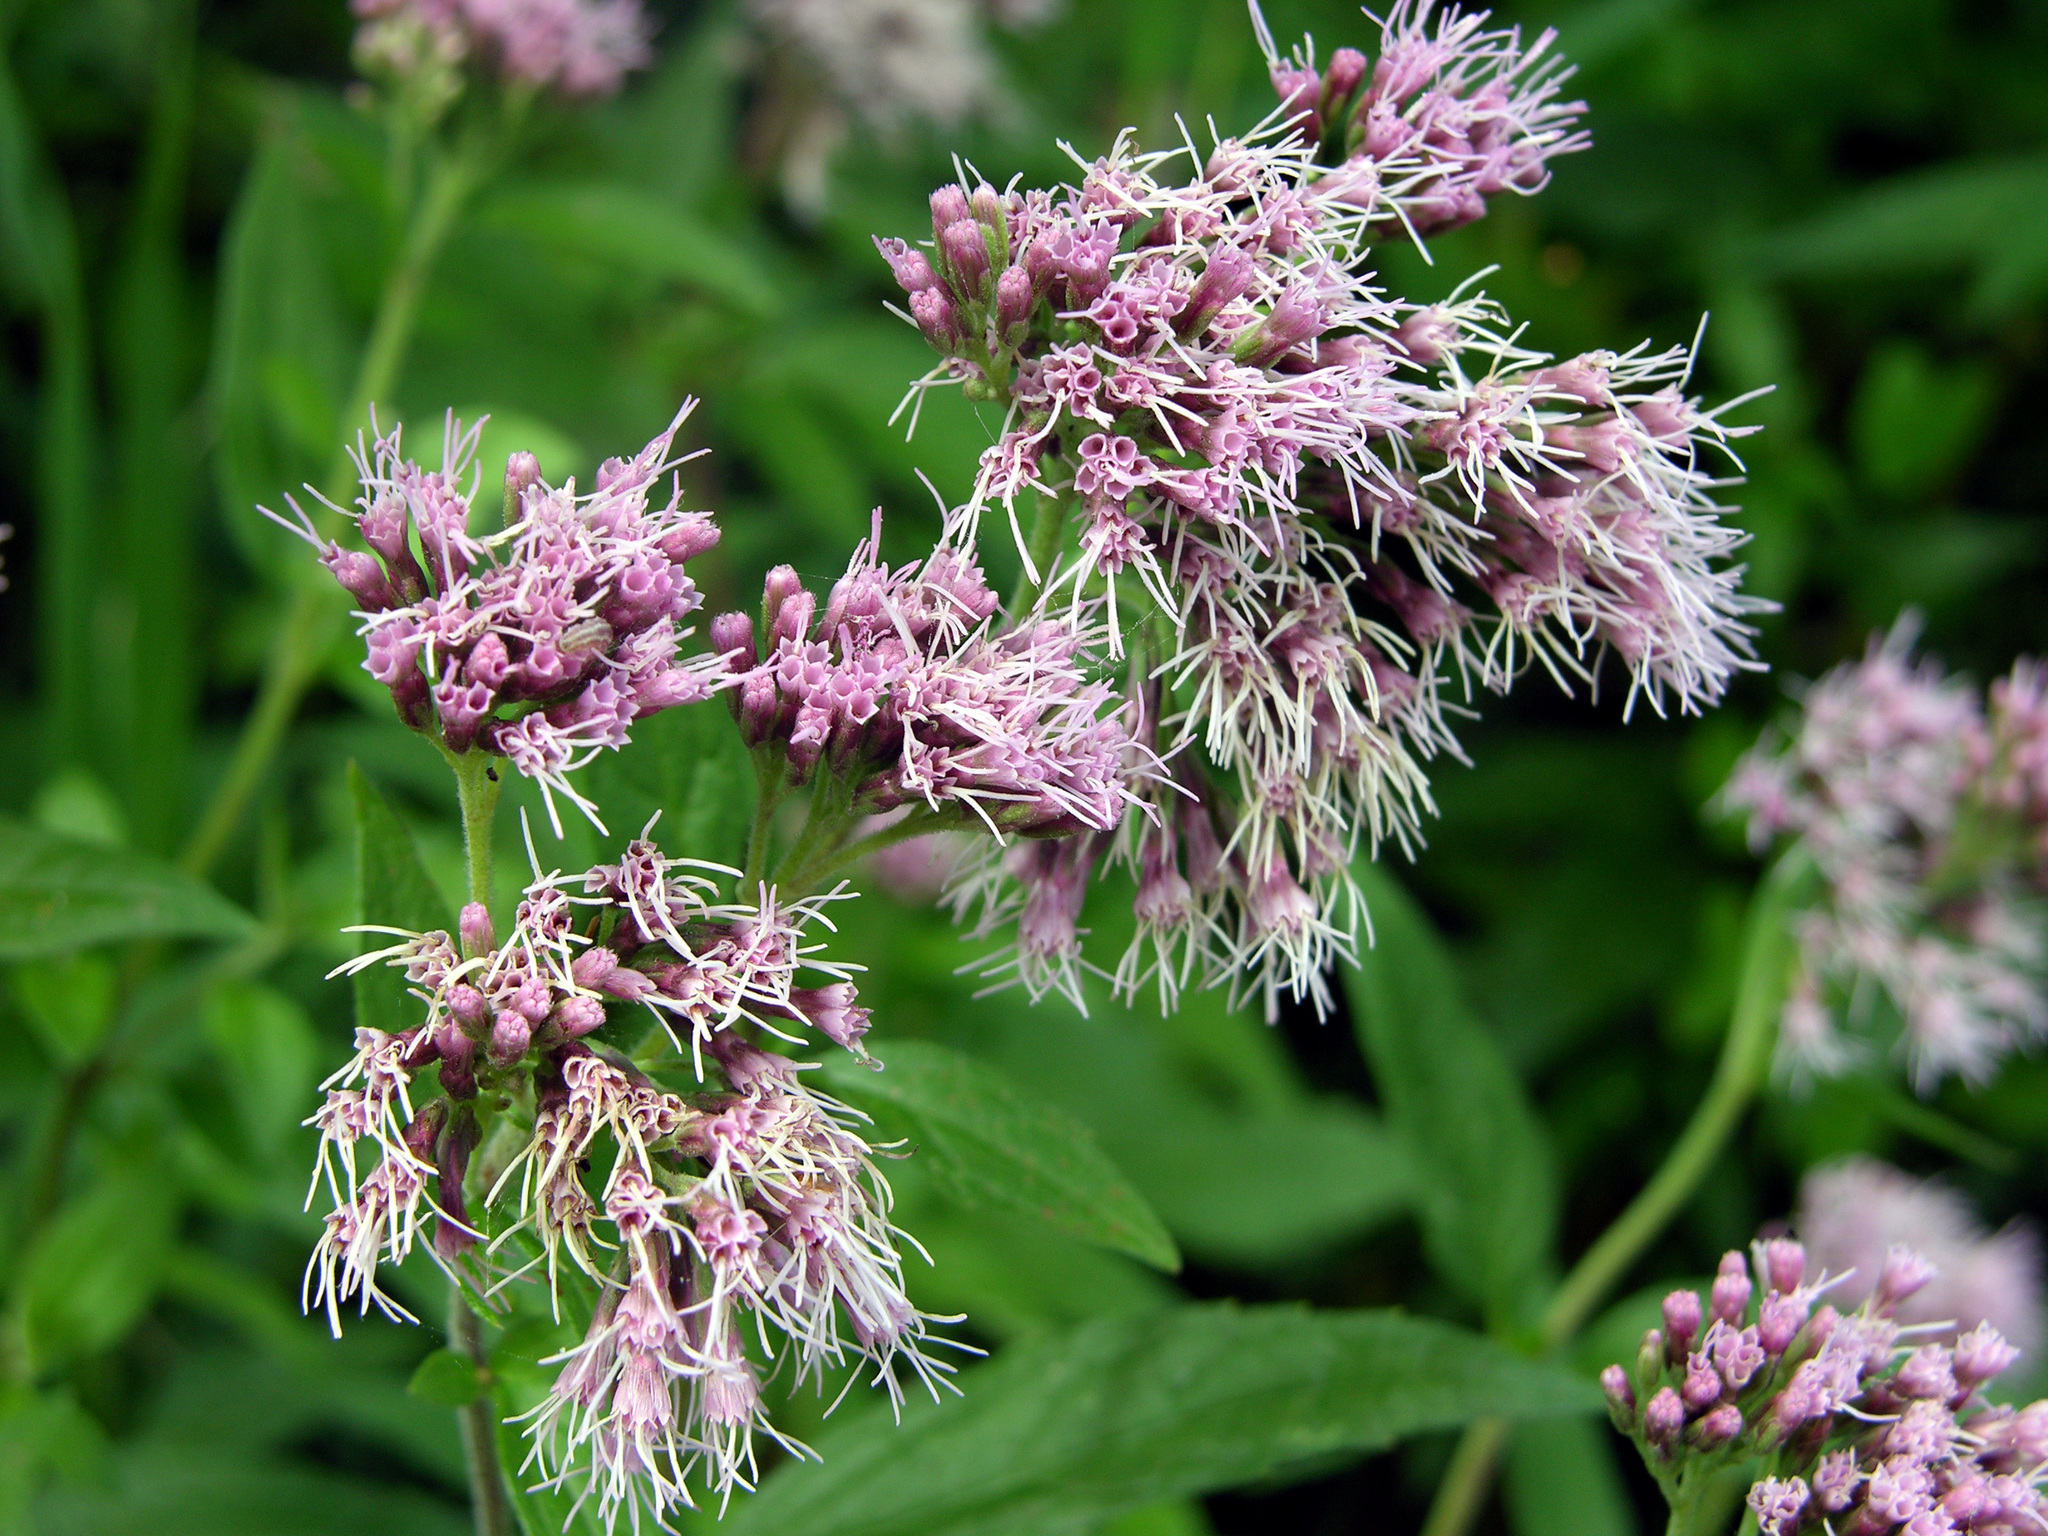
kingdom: Plantae
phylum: Tracheophyta
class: Magnoliopsida
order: Asterales
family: Asteraceae
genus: Eupatorium
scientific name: Eupatorium cannabinum
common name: Hemp-agrimony
